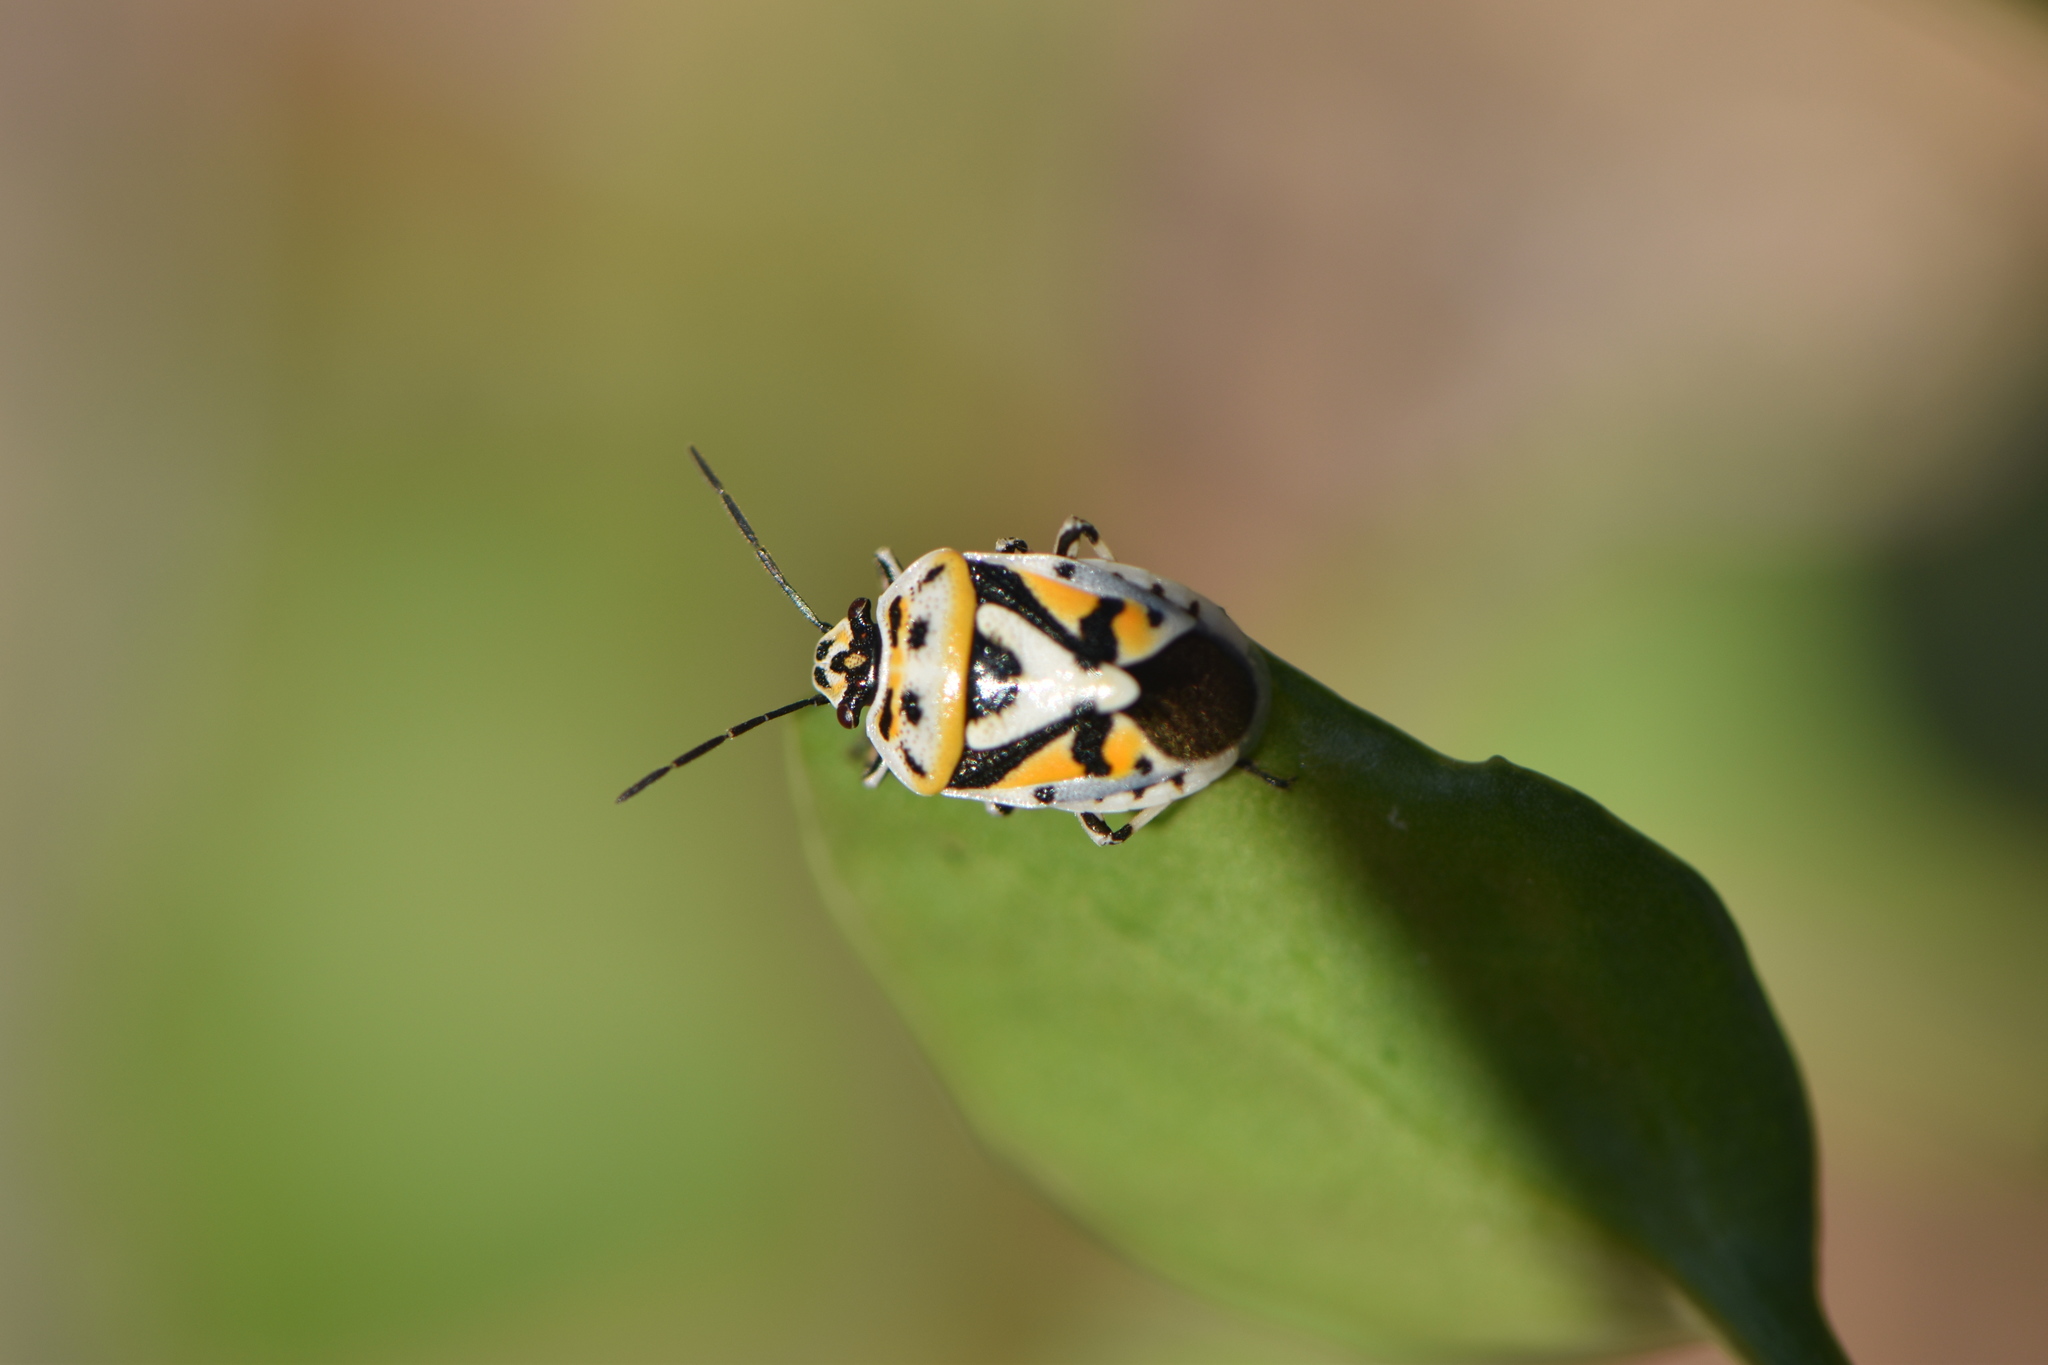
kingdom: Animalia
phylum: Arthropoda
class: Insecta
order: Hemiptera
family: Pentatomidae
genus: Eurydema
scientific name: Eurydema ornata
